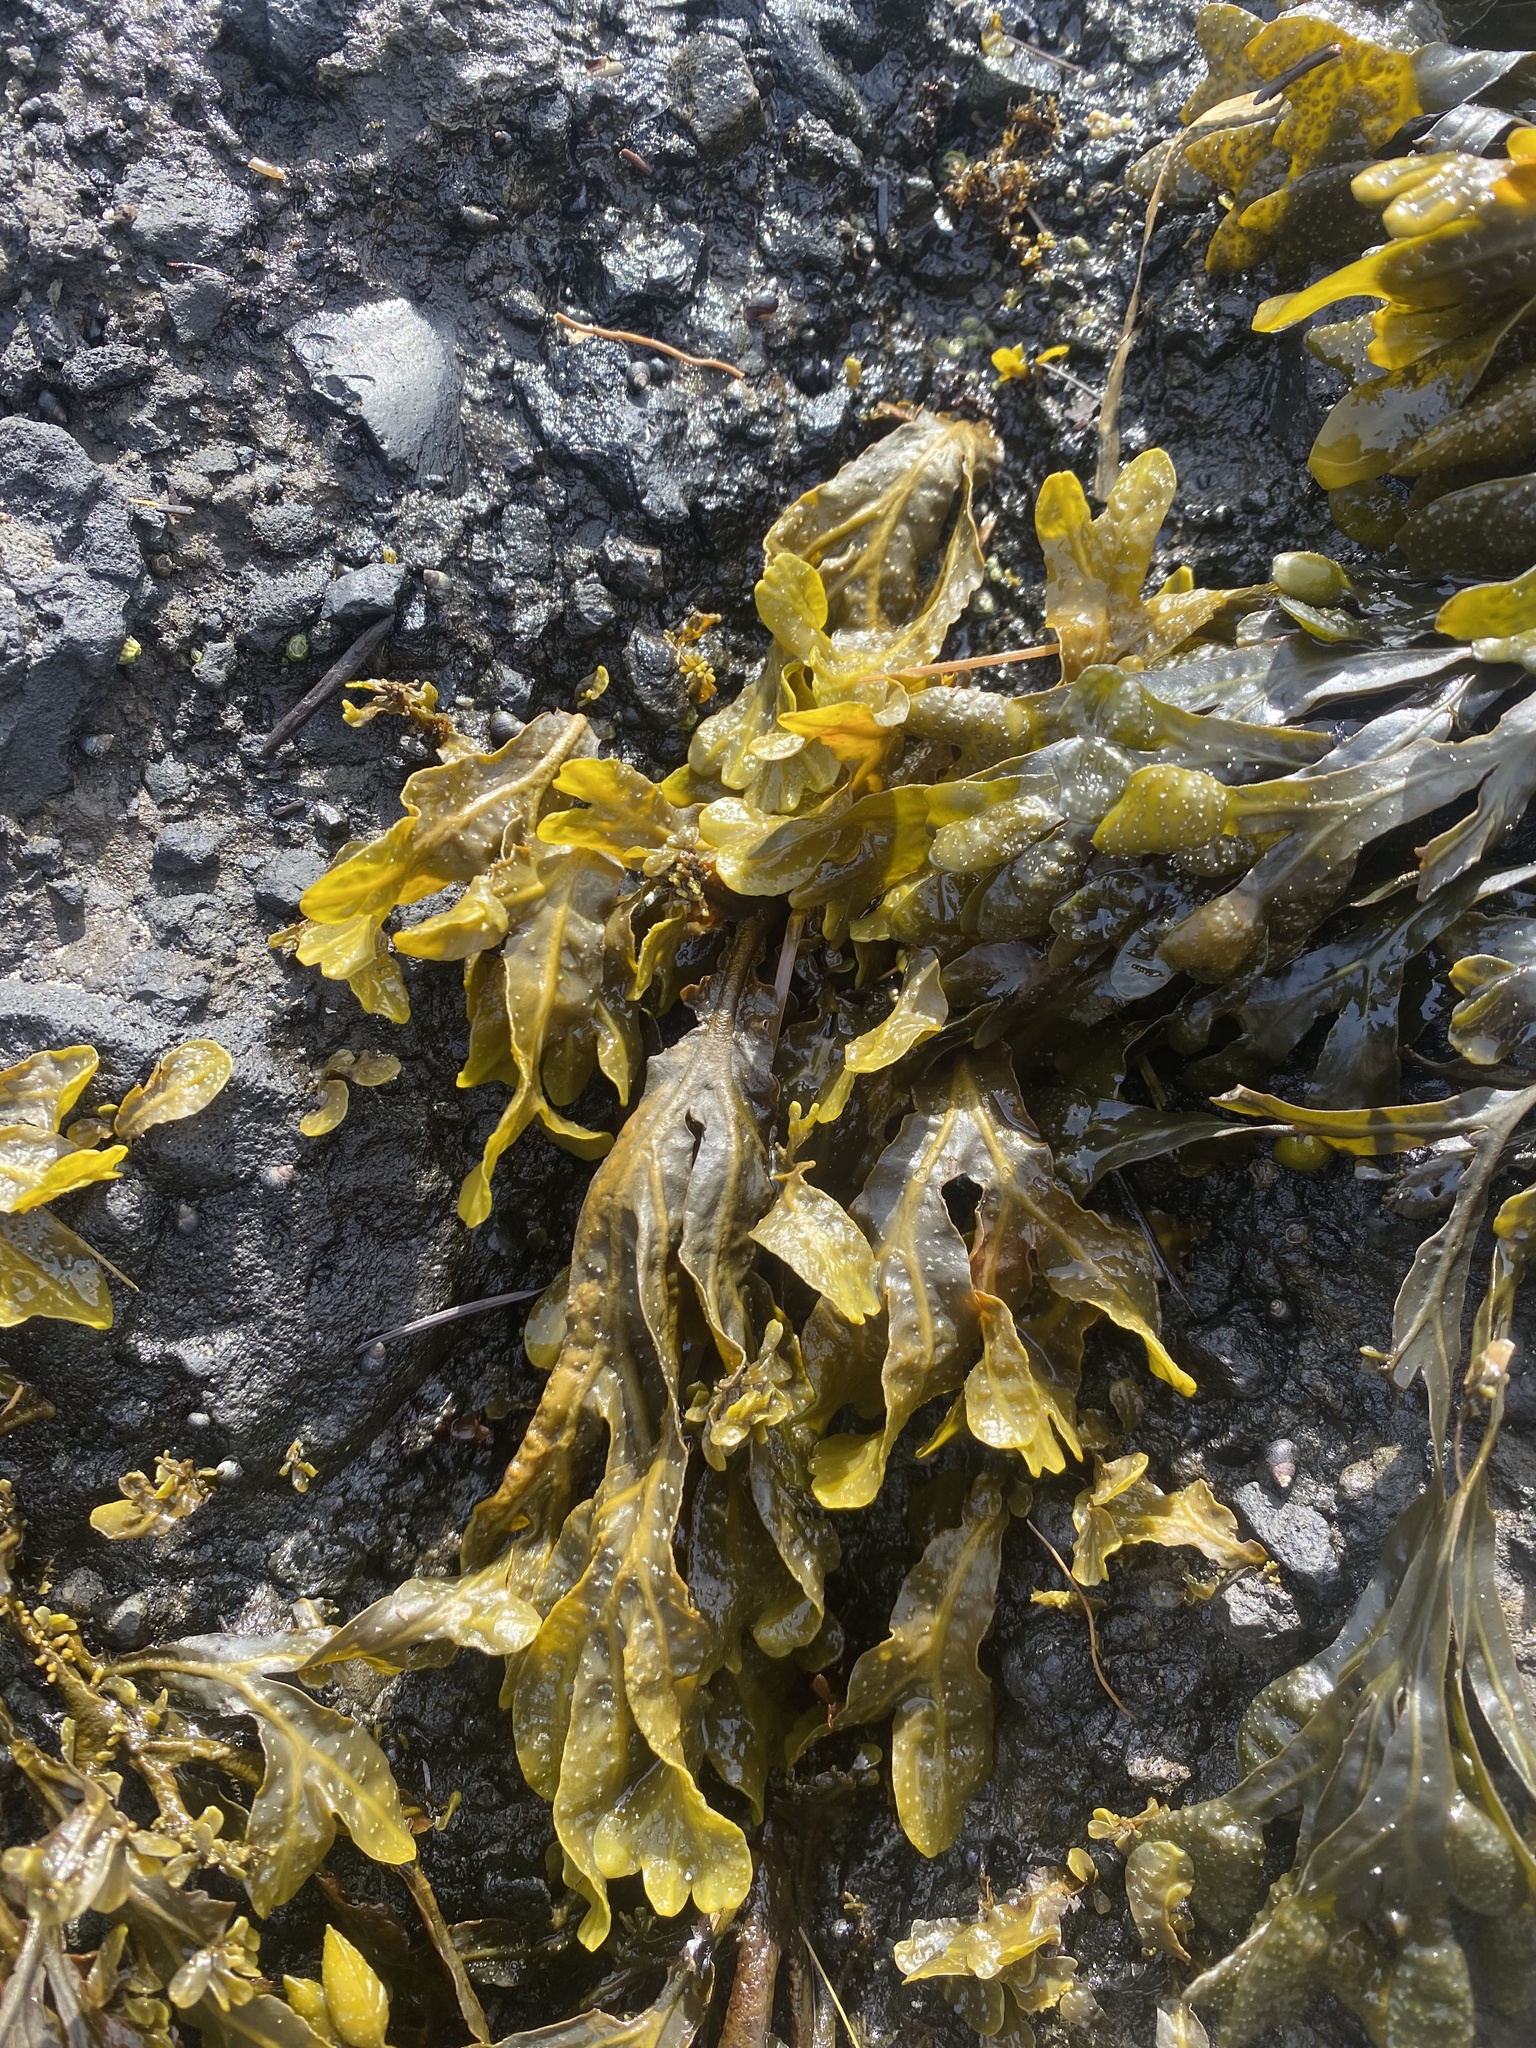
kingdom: Chromista
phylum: Ochrophyta
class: Phaeophyceae
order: Fucales
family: Fucaceae
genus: Fucus
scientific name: Fucus distichus
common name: Rockweed
